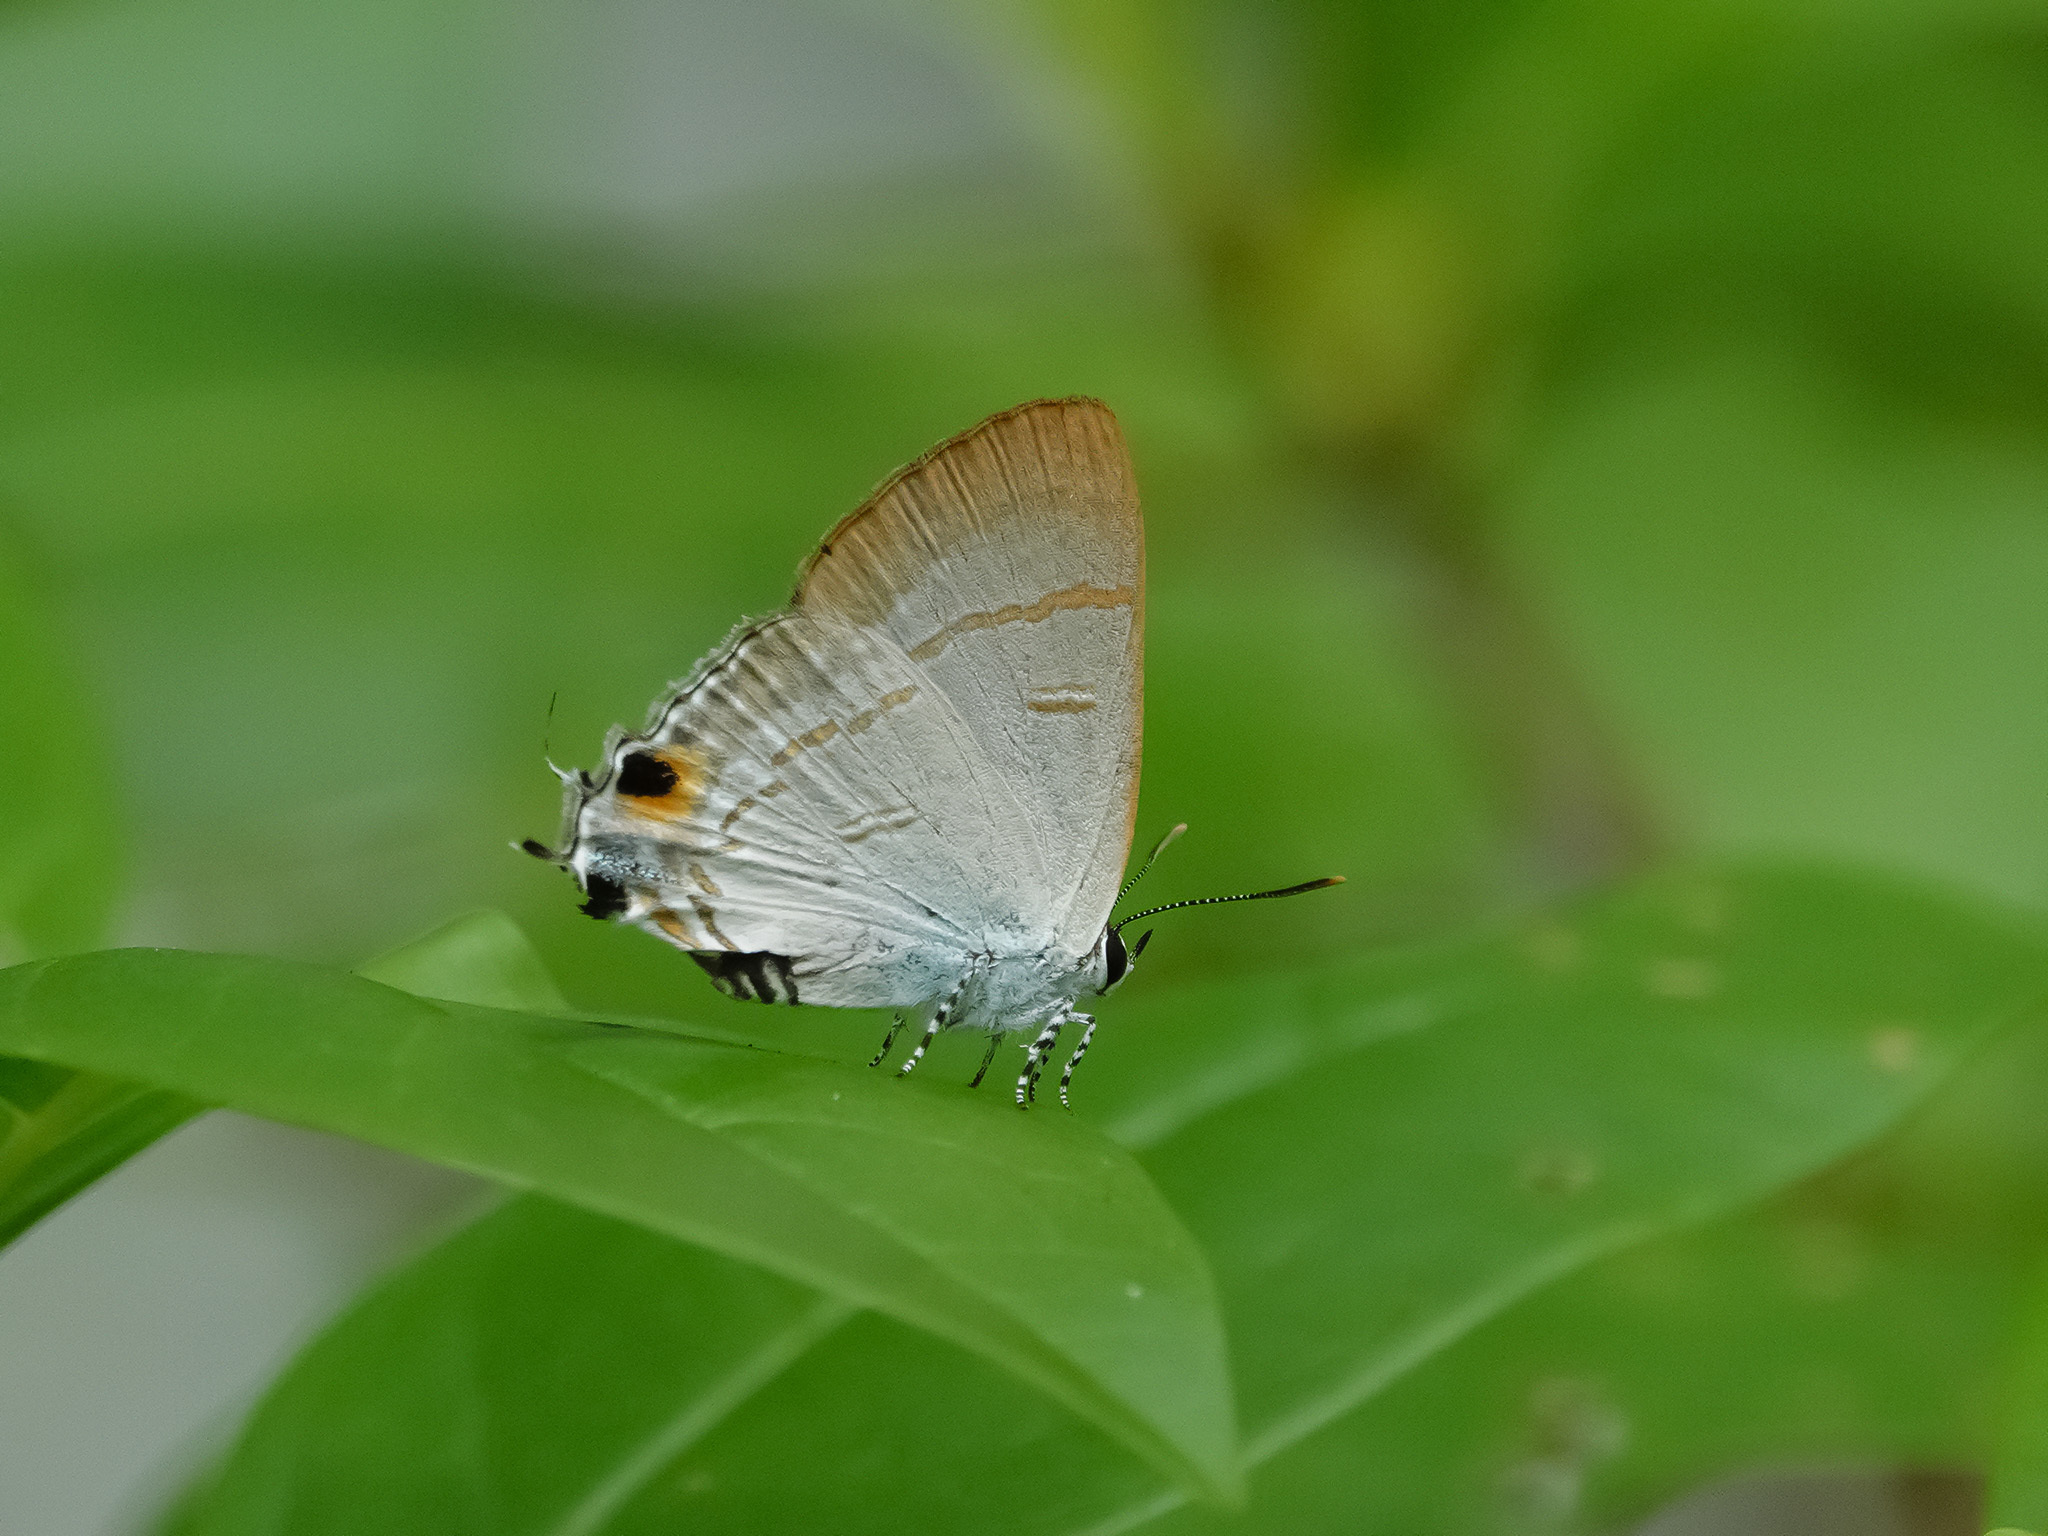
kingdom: Animalia
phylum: Arthropoda
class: Insecta
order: Lepidoptera
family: Lycaenidae
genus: Hypolycaena
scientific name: Hypolycaena erylus
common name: Common tit
